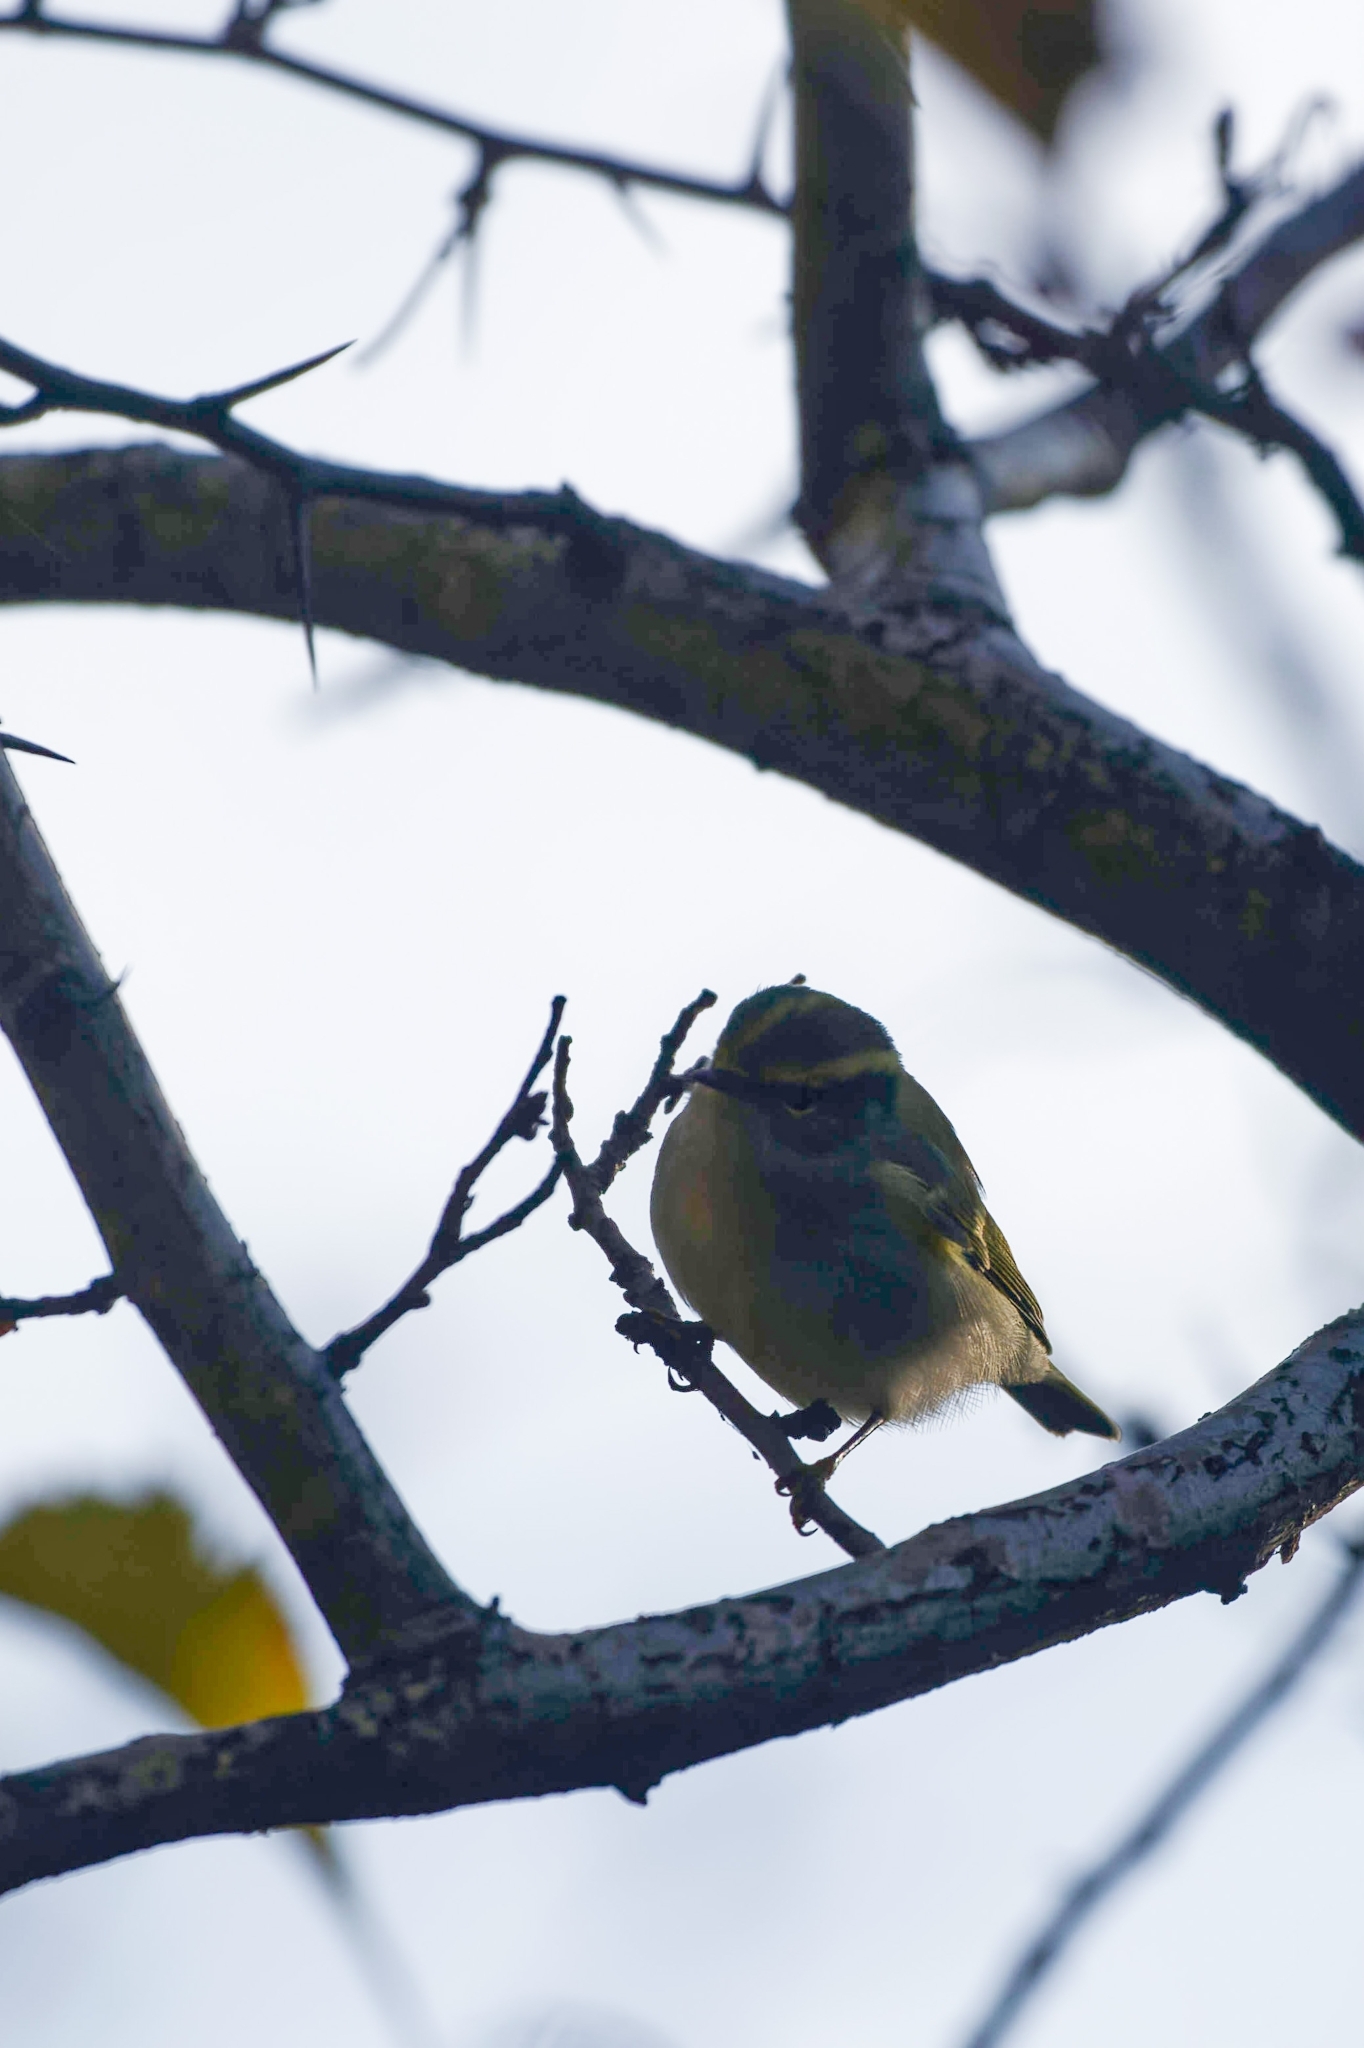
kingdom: Animalia
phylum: Chordata
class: Aves
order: Passeriformes
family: Phylloscopidae
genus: Phylloscopus
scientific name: Phylloscopus proregulus
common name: Pallas's leaf warbler
